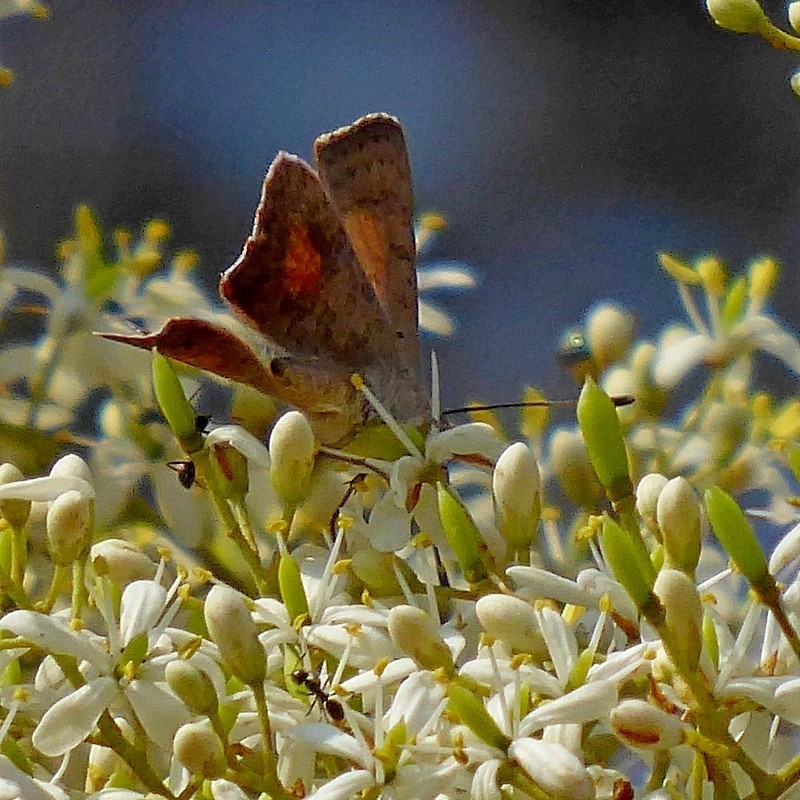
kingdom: Animalia
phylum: Arthropoda
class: Insecta
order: Lepidoptera
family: Lycaenidae
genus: Paralucia
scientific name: Paralucia aurifer
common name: Bright copper
